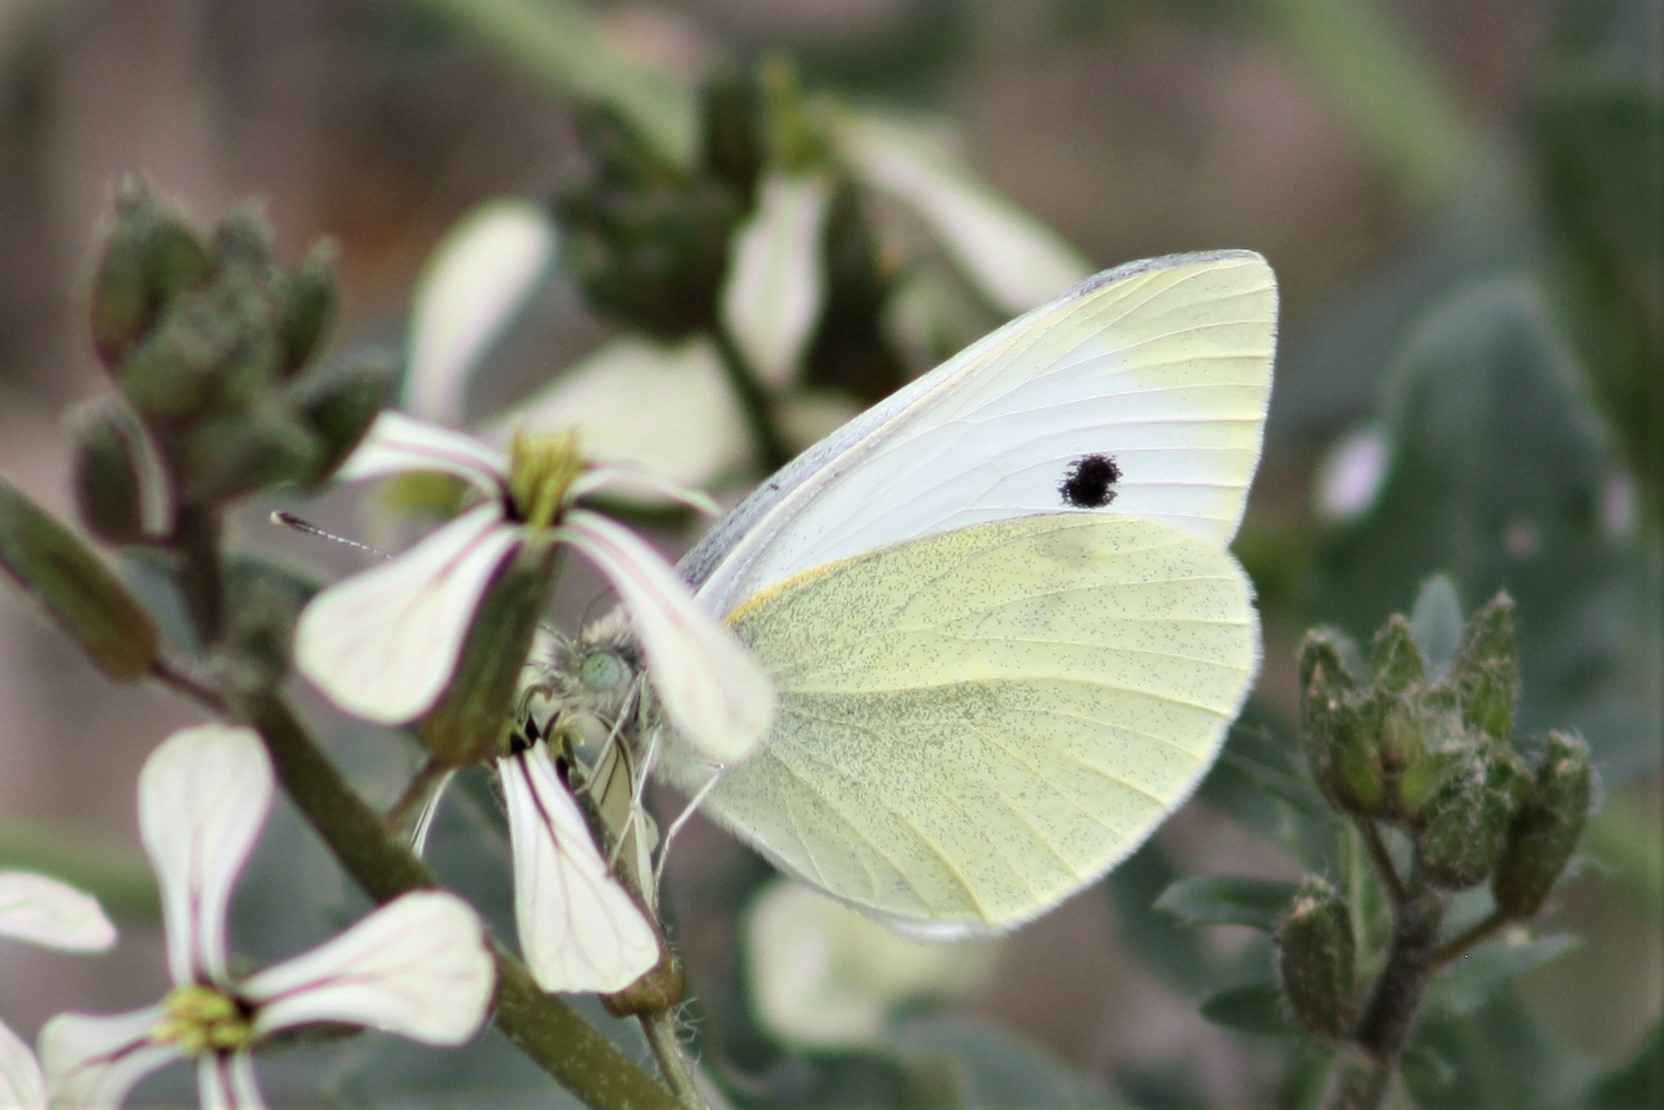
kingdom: Animalia
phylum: Arthropoda
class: Insecta
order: Lepidoptera
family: Pieridae
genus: Pieris
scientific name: Pieris rapae
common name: Small white
